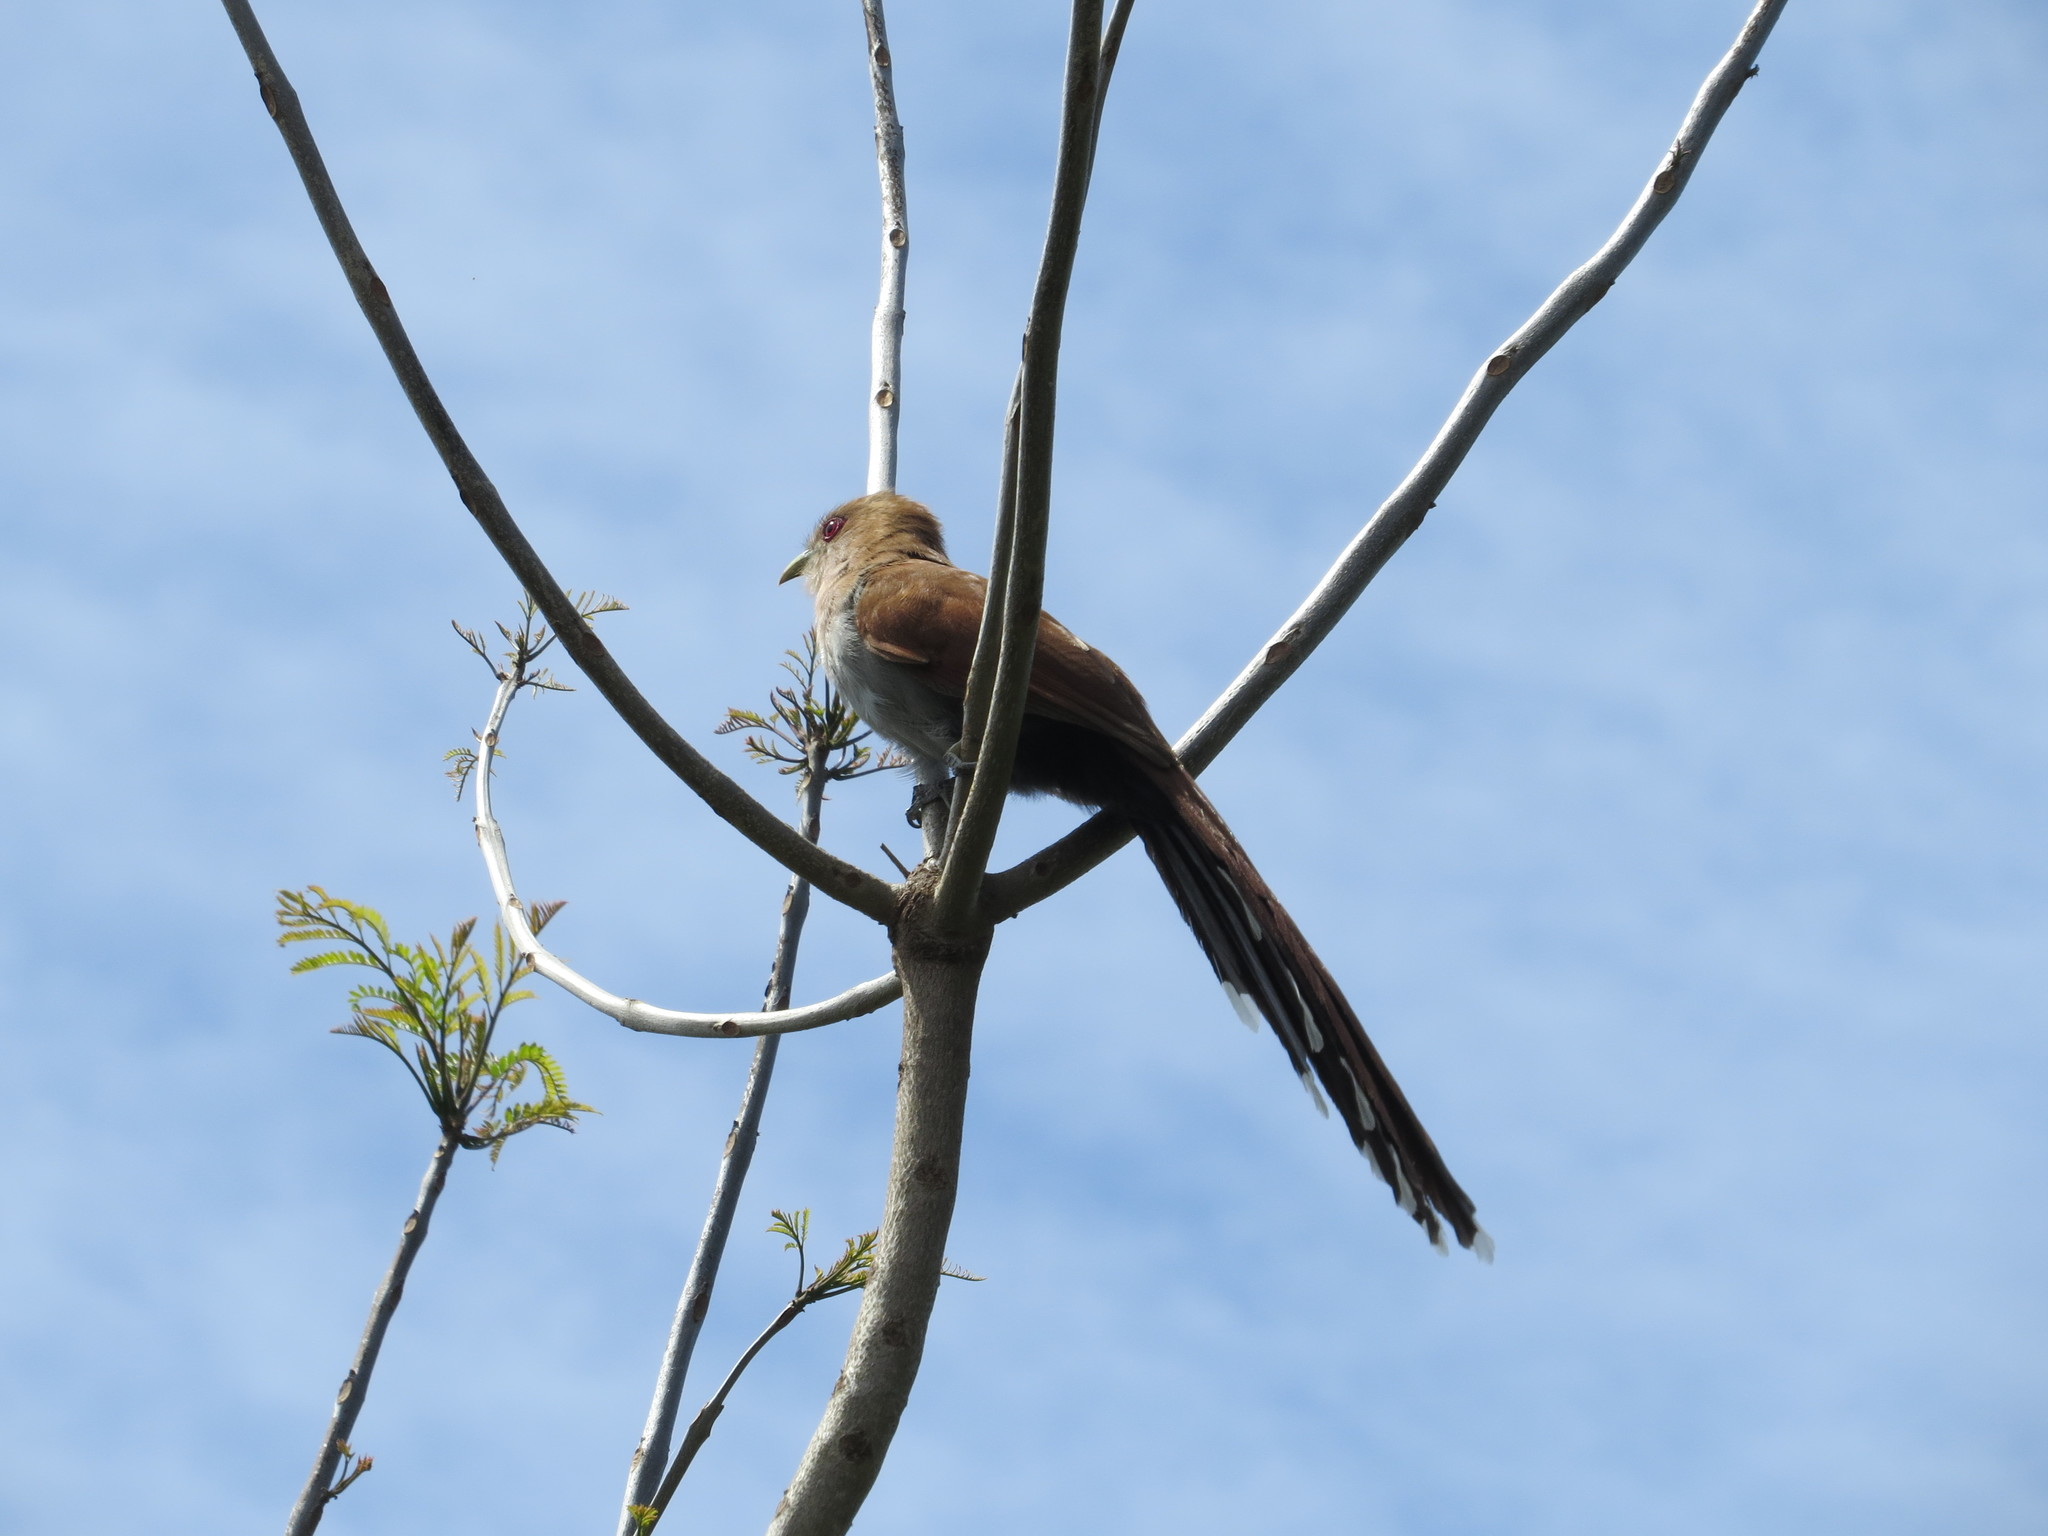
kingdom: Animalia
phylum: Chordata
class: Aves
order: Cuculiformes
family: Cuculidae
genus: Piaya
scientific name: Piaya cayana
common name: Squirrel cuckoo
